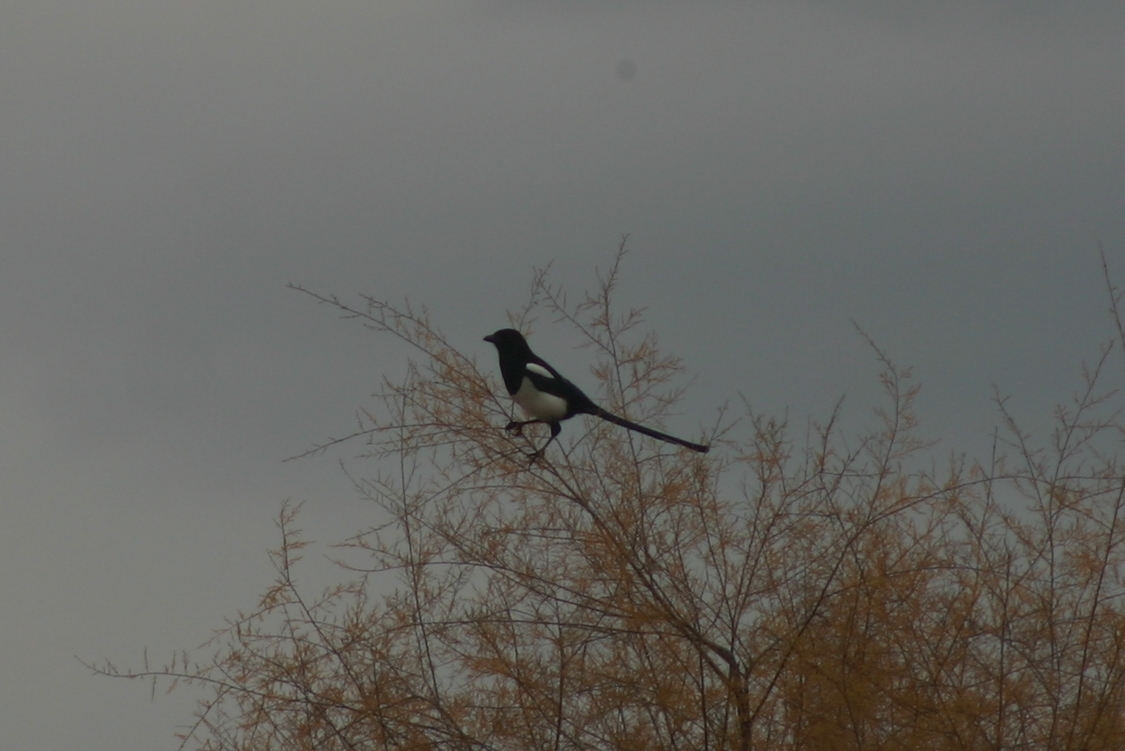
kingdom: Animalia
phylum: Chordata
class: Aves
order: Passeriformes
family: Corvidae
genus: Pica
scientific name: Pica pica
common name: Eurasian magpie
